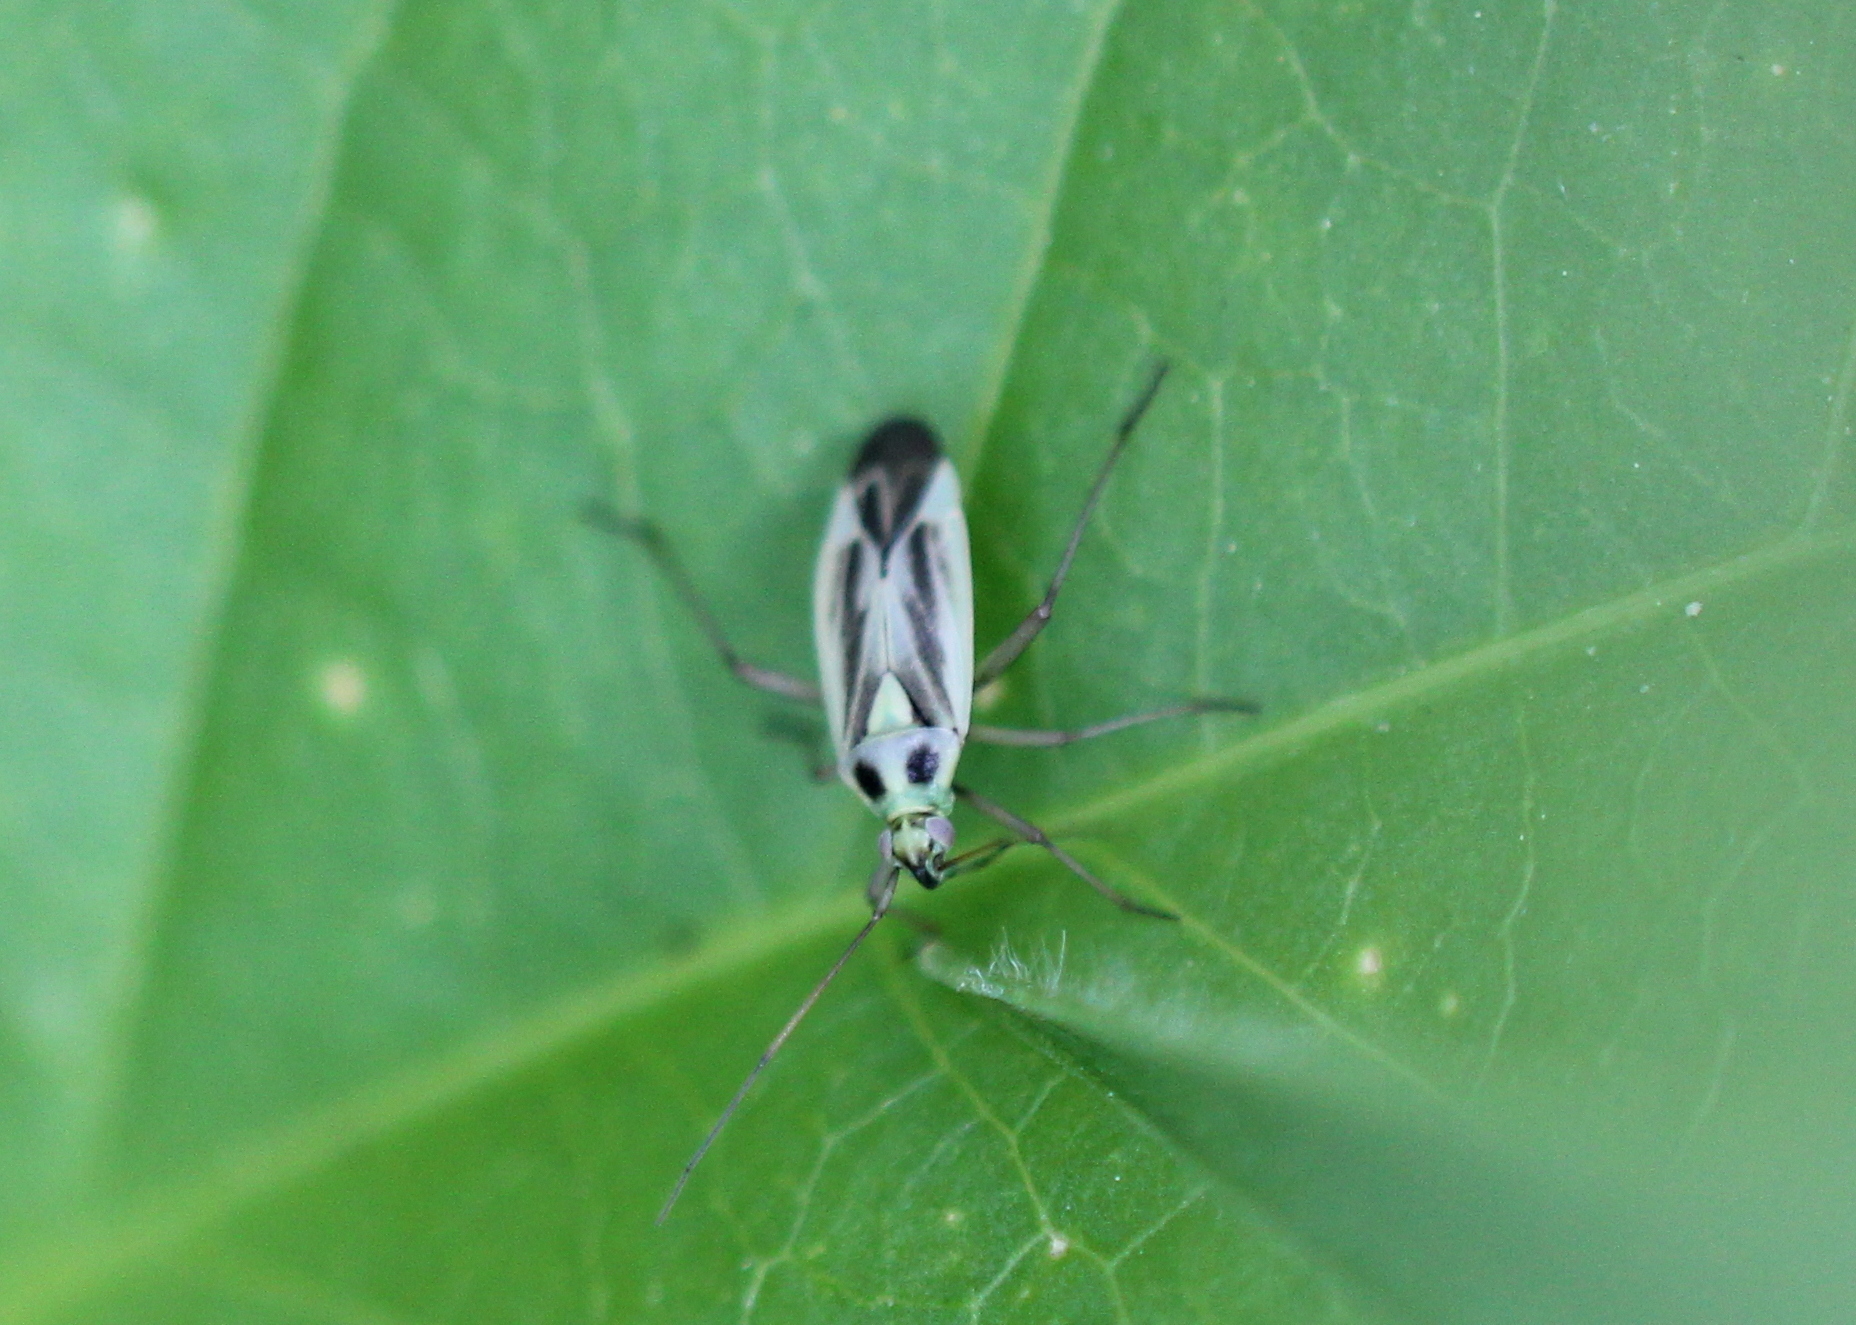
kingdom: Animalia
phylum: Arthropoda
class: Insecta
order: Hemiptera
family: Miridae
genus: Stenotus
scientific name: Stenotus binotatus
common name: Plant bug
